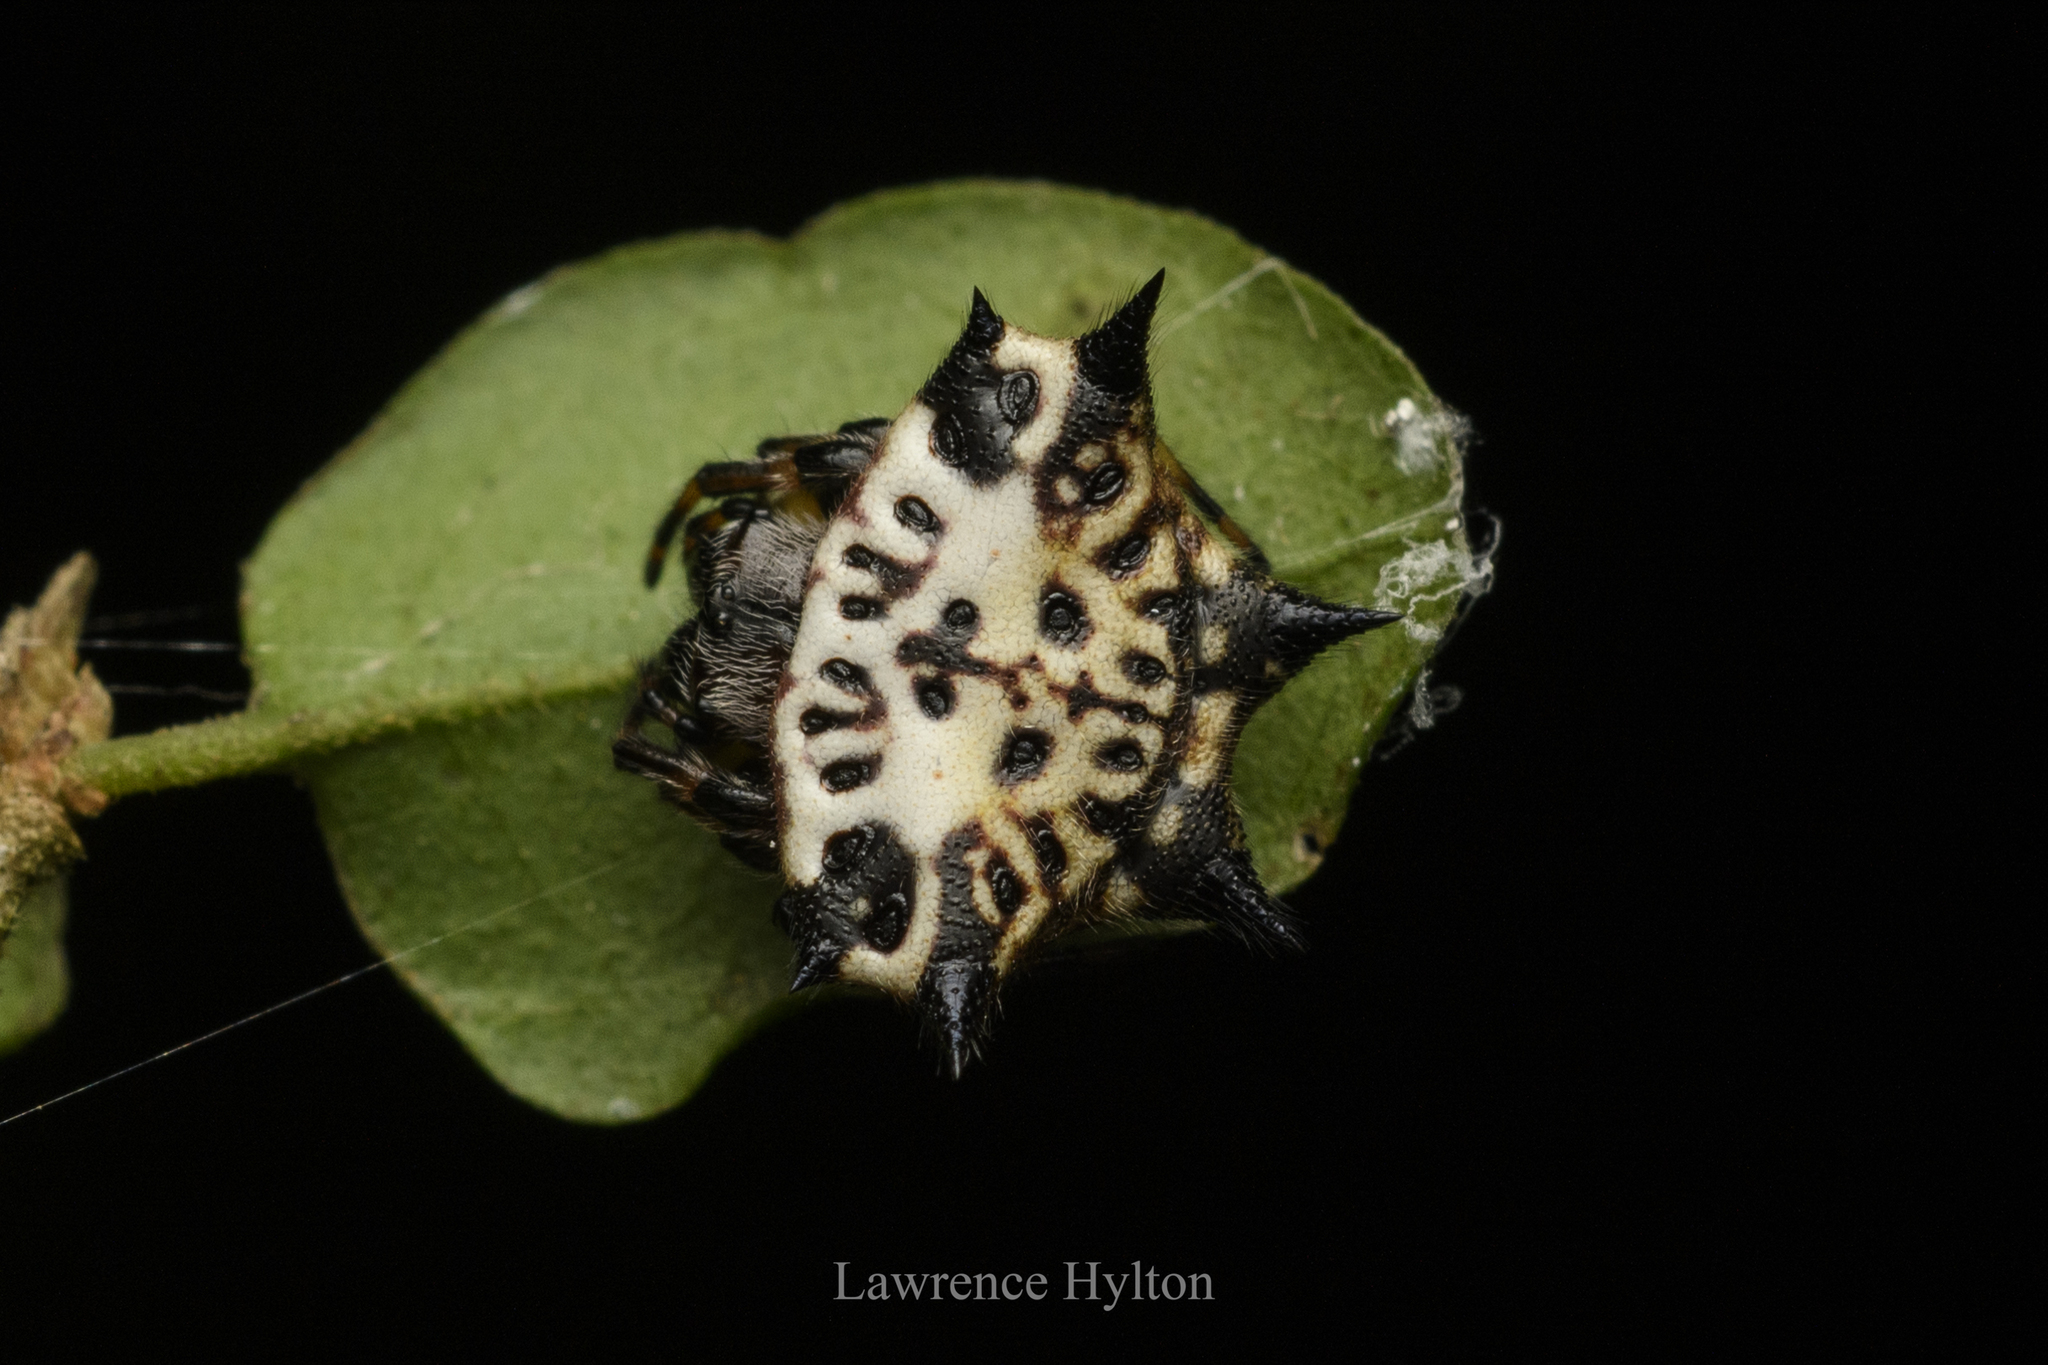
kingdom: Animalia
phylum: Arthropoda
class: Arachnida
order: Araneae
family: Araneidae
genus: Gasteracantha
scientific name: Gasteracantha kuhli
